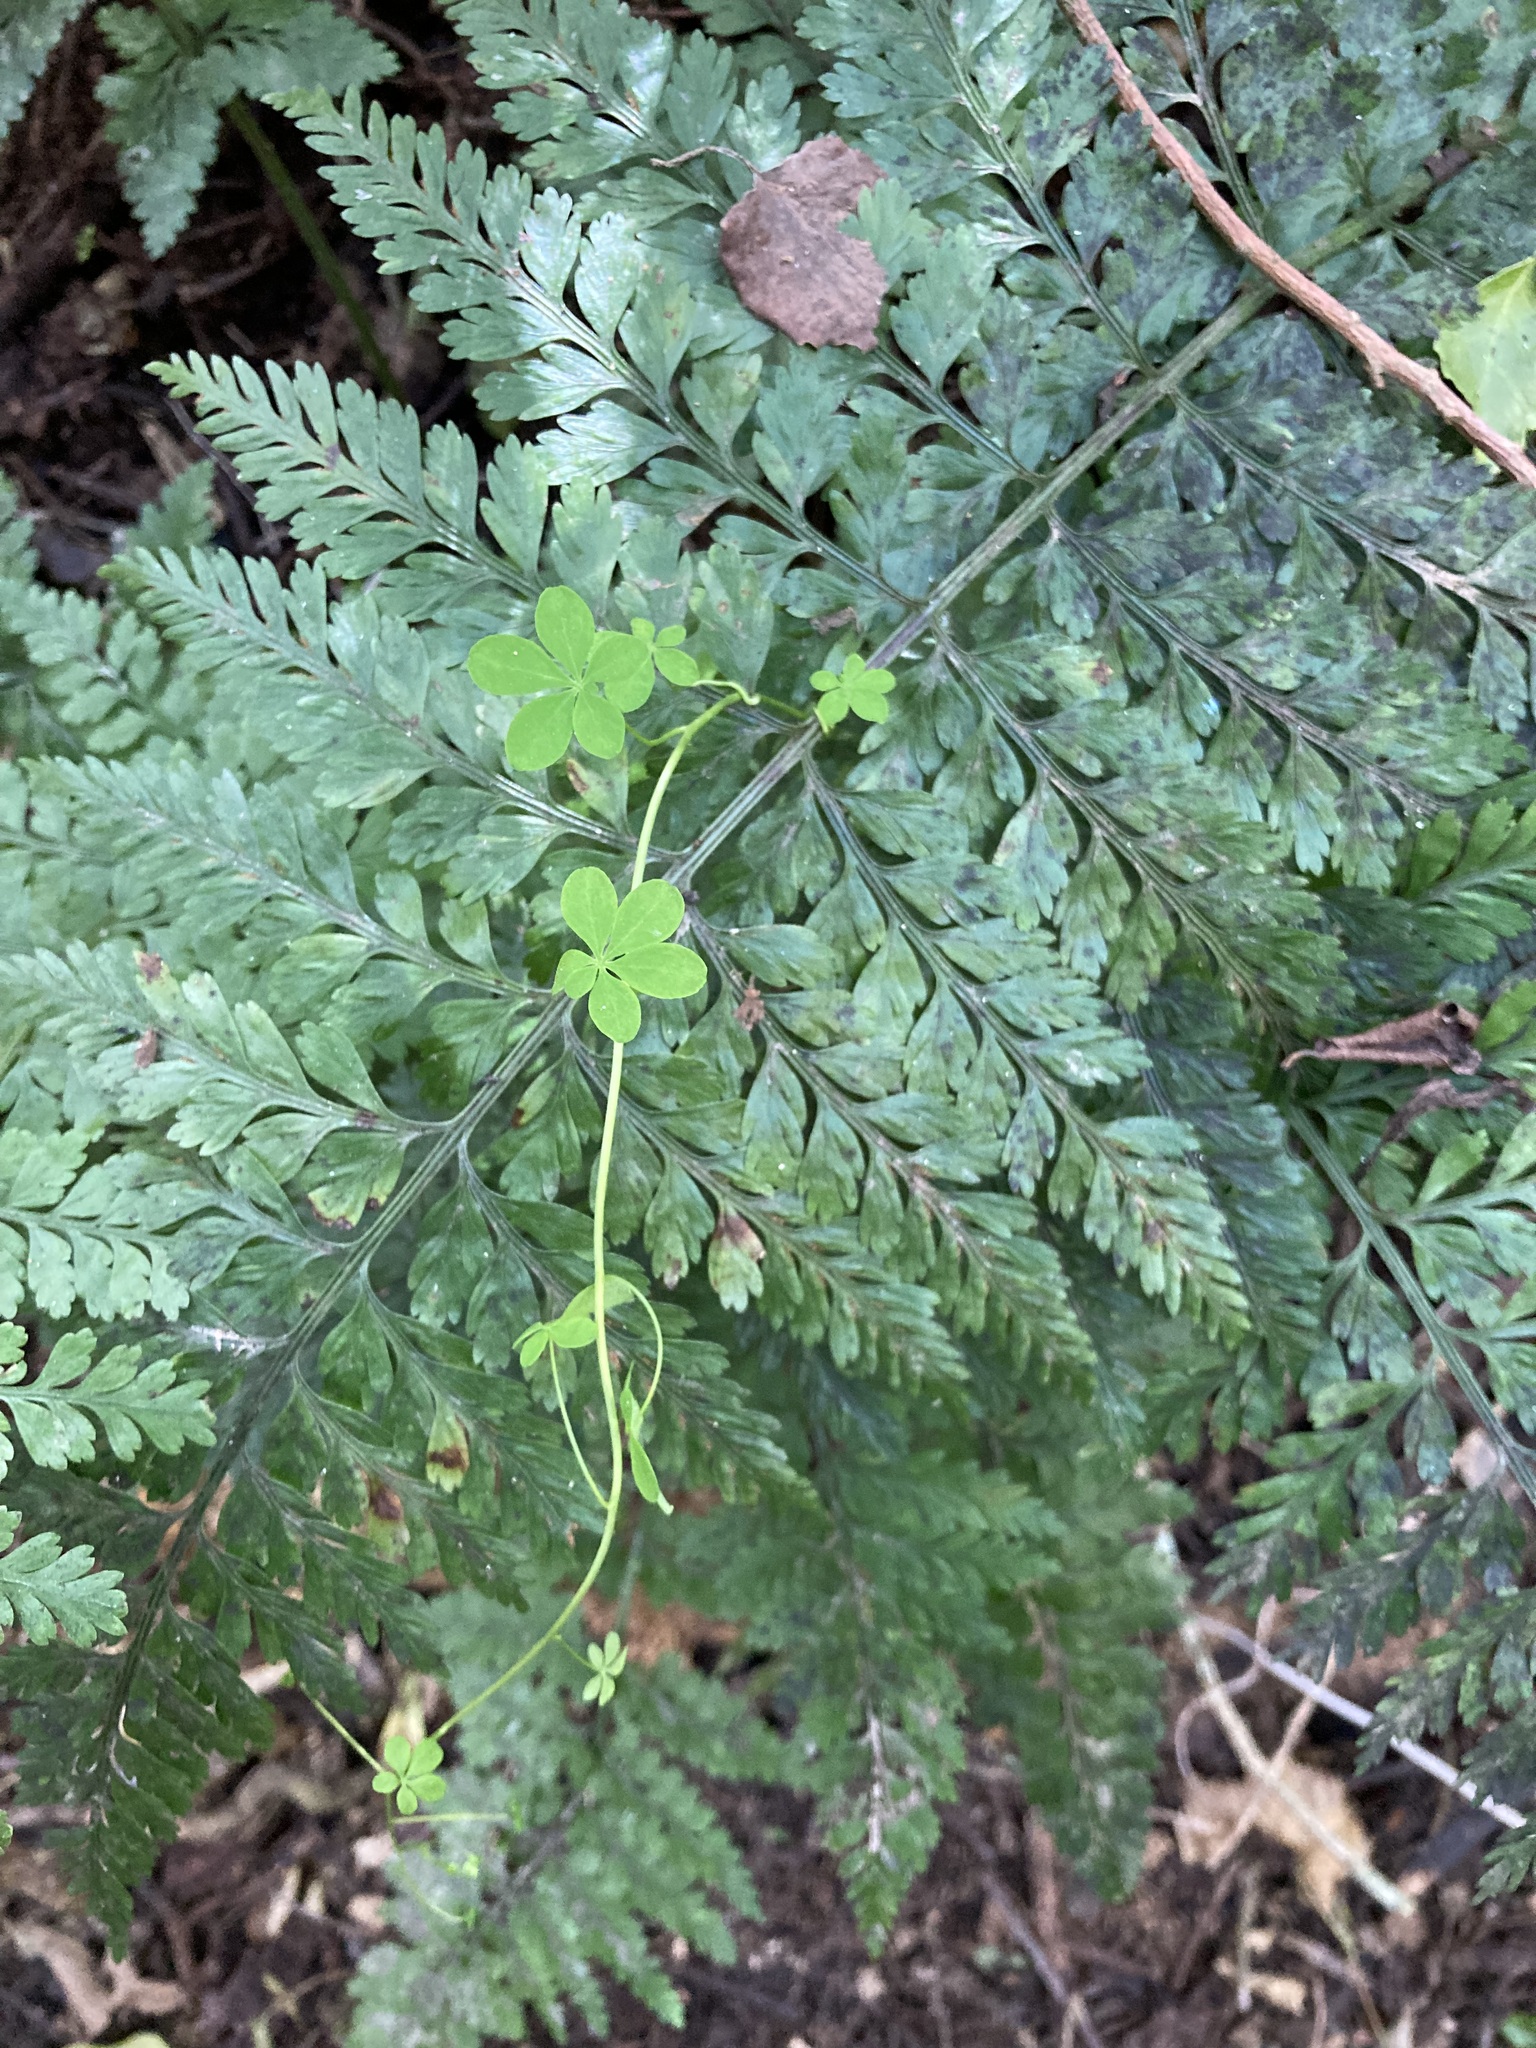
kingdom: Plantae
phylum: Tracheophyta
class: Magnoliopsida
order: Brassicales
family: Tropaeolaceae
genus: Tropaeolum
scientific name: Tropaeolum speciosum
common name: Flame nasturtium
